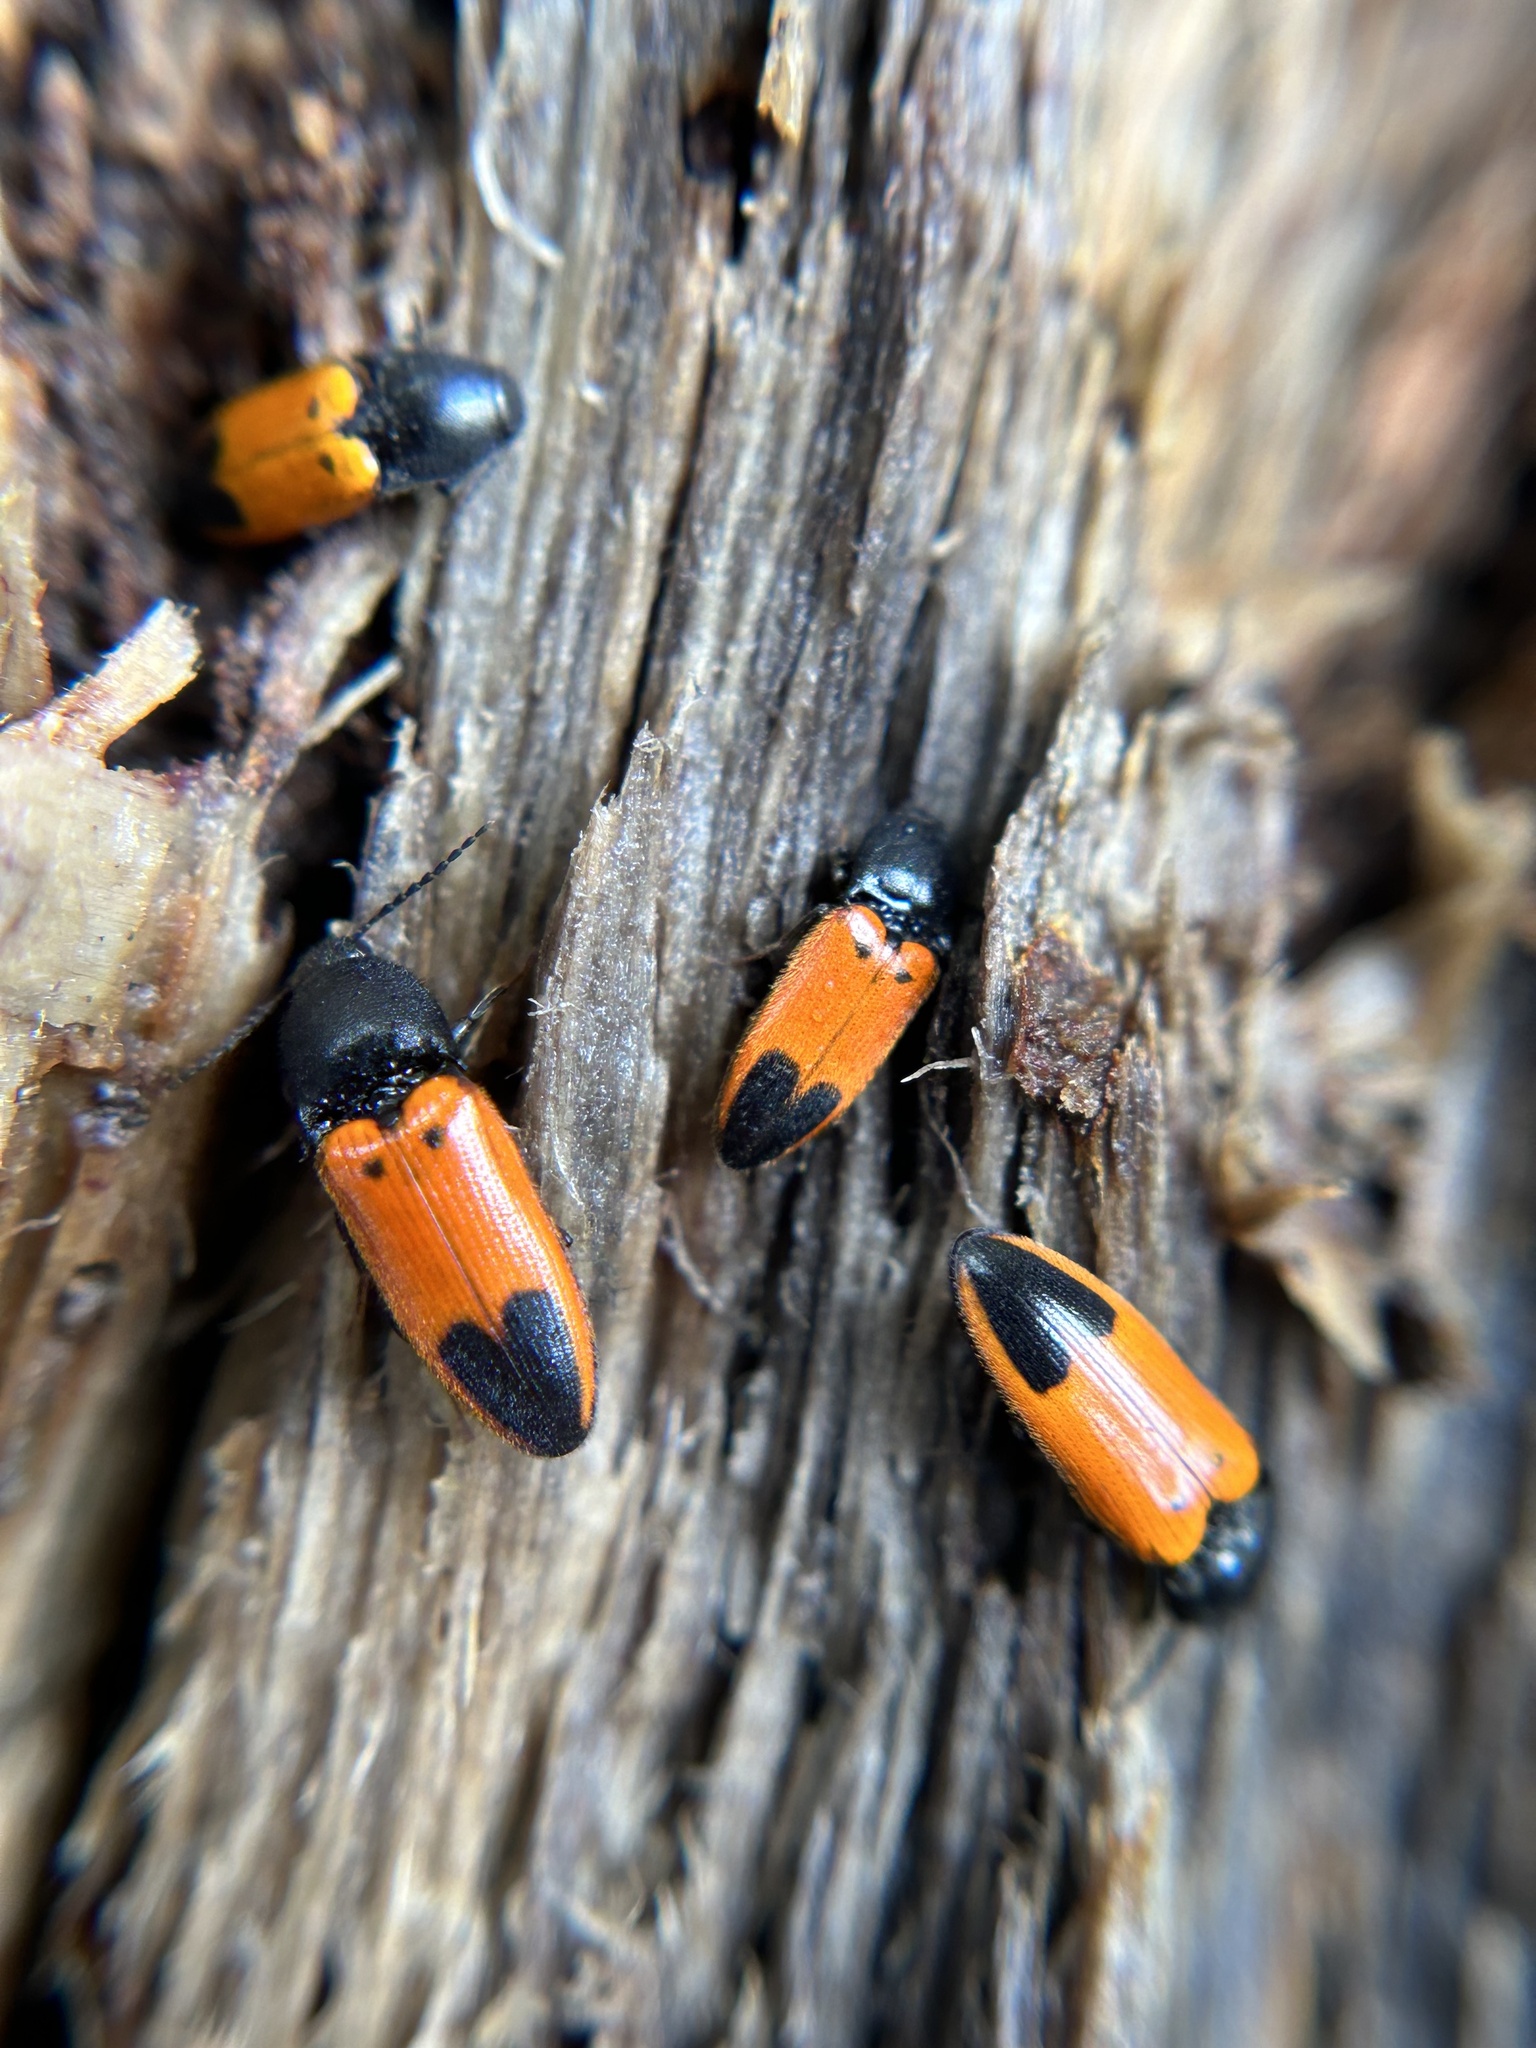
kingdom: Animalia
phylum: Arthropoda
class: Insecta
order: Coleoptera
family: Elateridae
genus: Ampedus
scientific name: Ampedus
